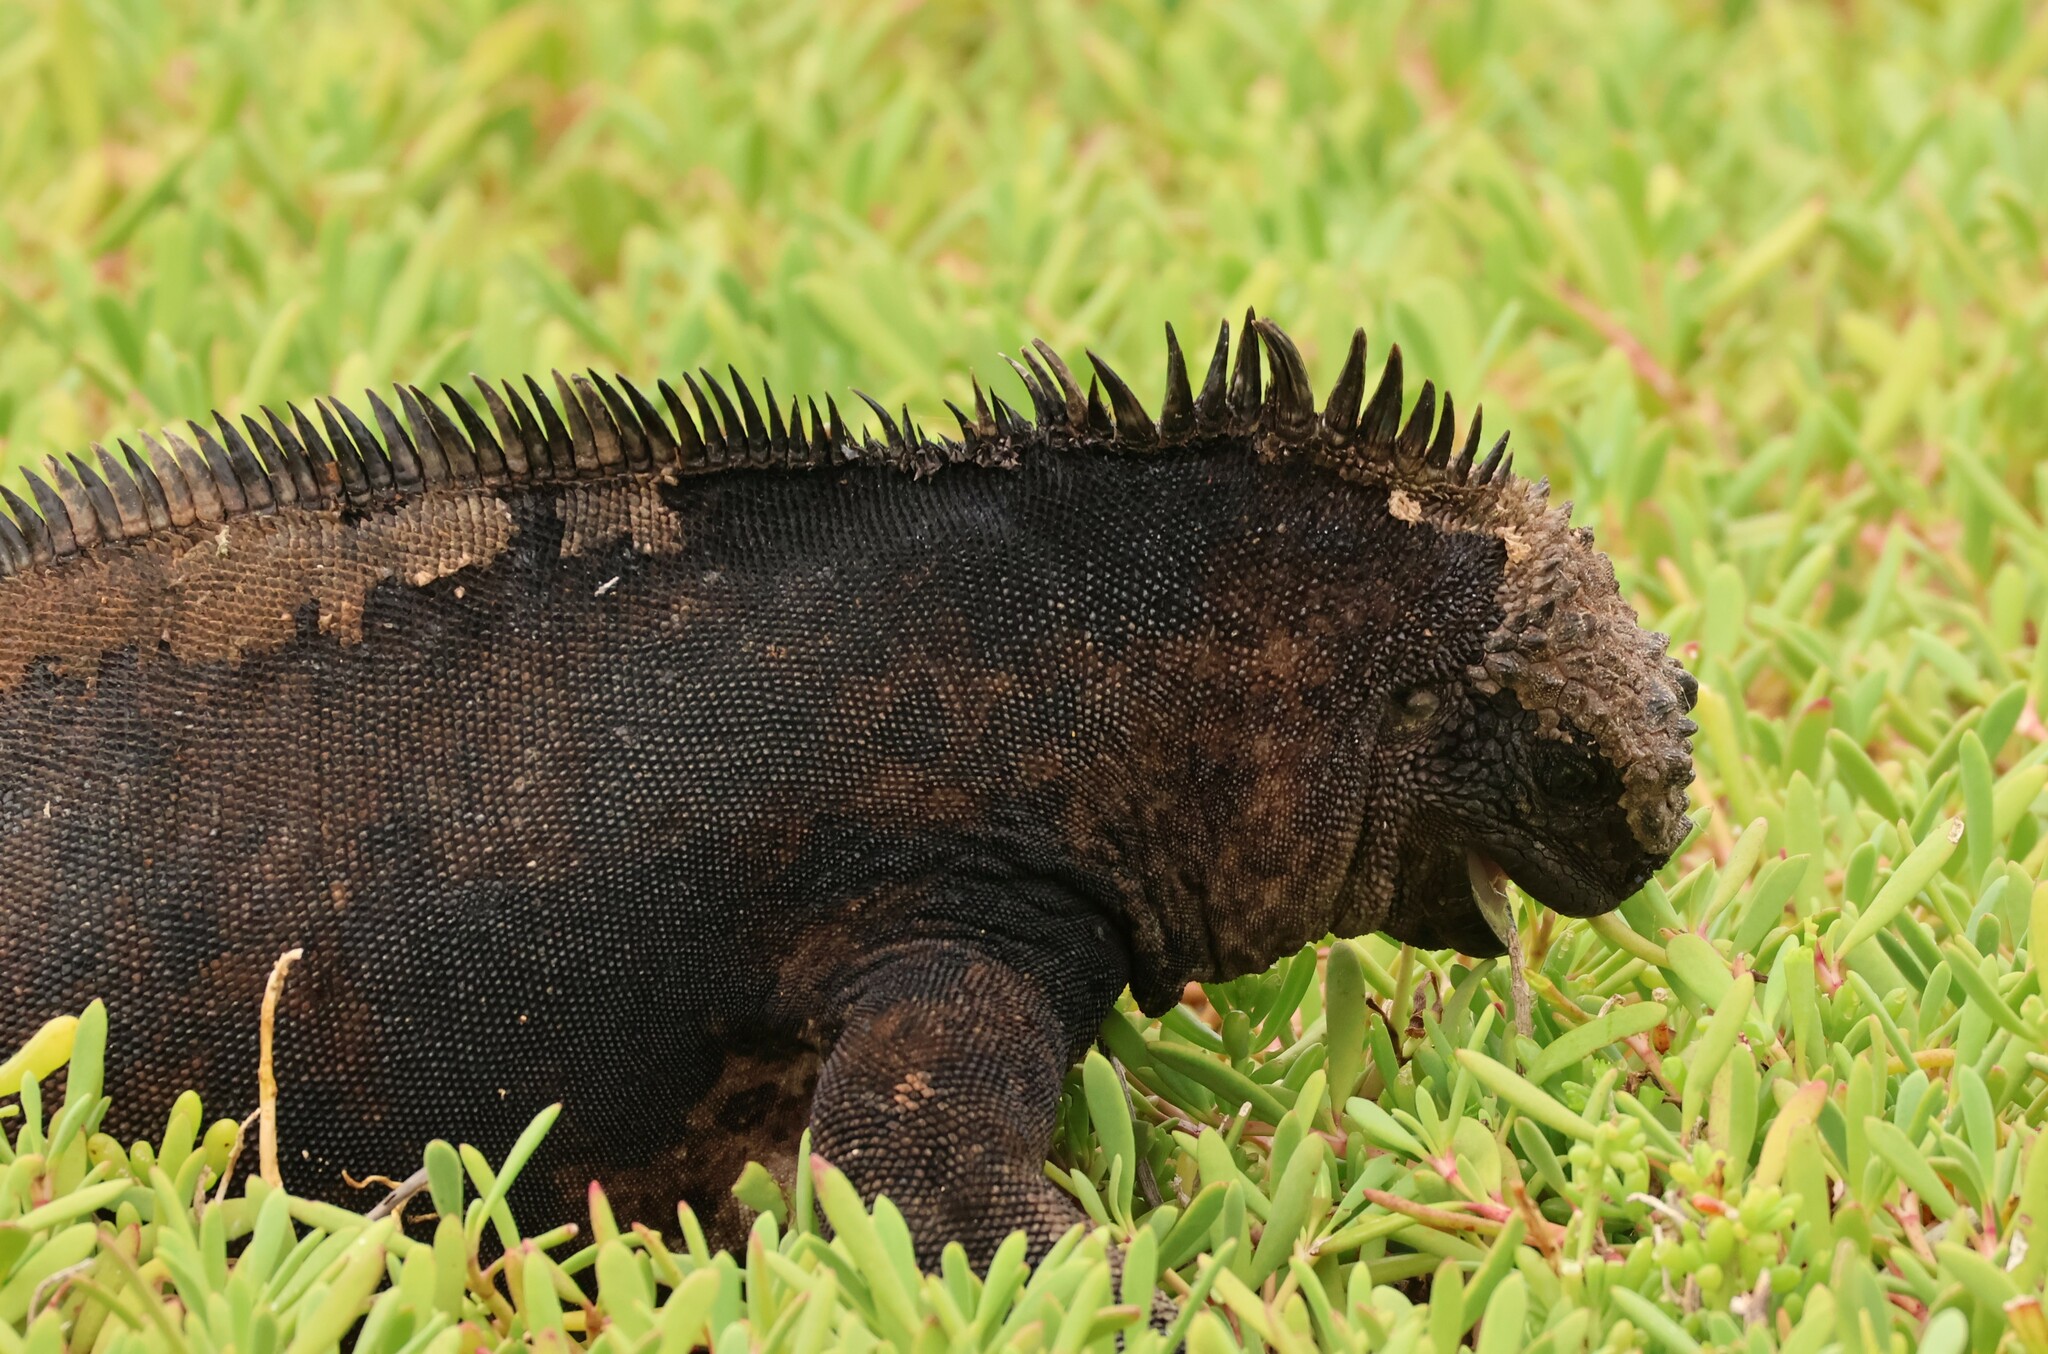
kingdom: Animalia
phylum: Chordata
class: Squamata
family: Iguanidae
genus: Amblyrhynchus
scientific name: Amblyrhynchus cristatus
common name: Marine iguana
